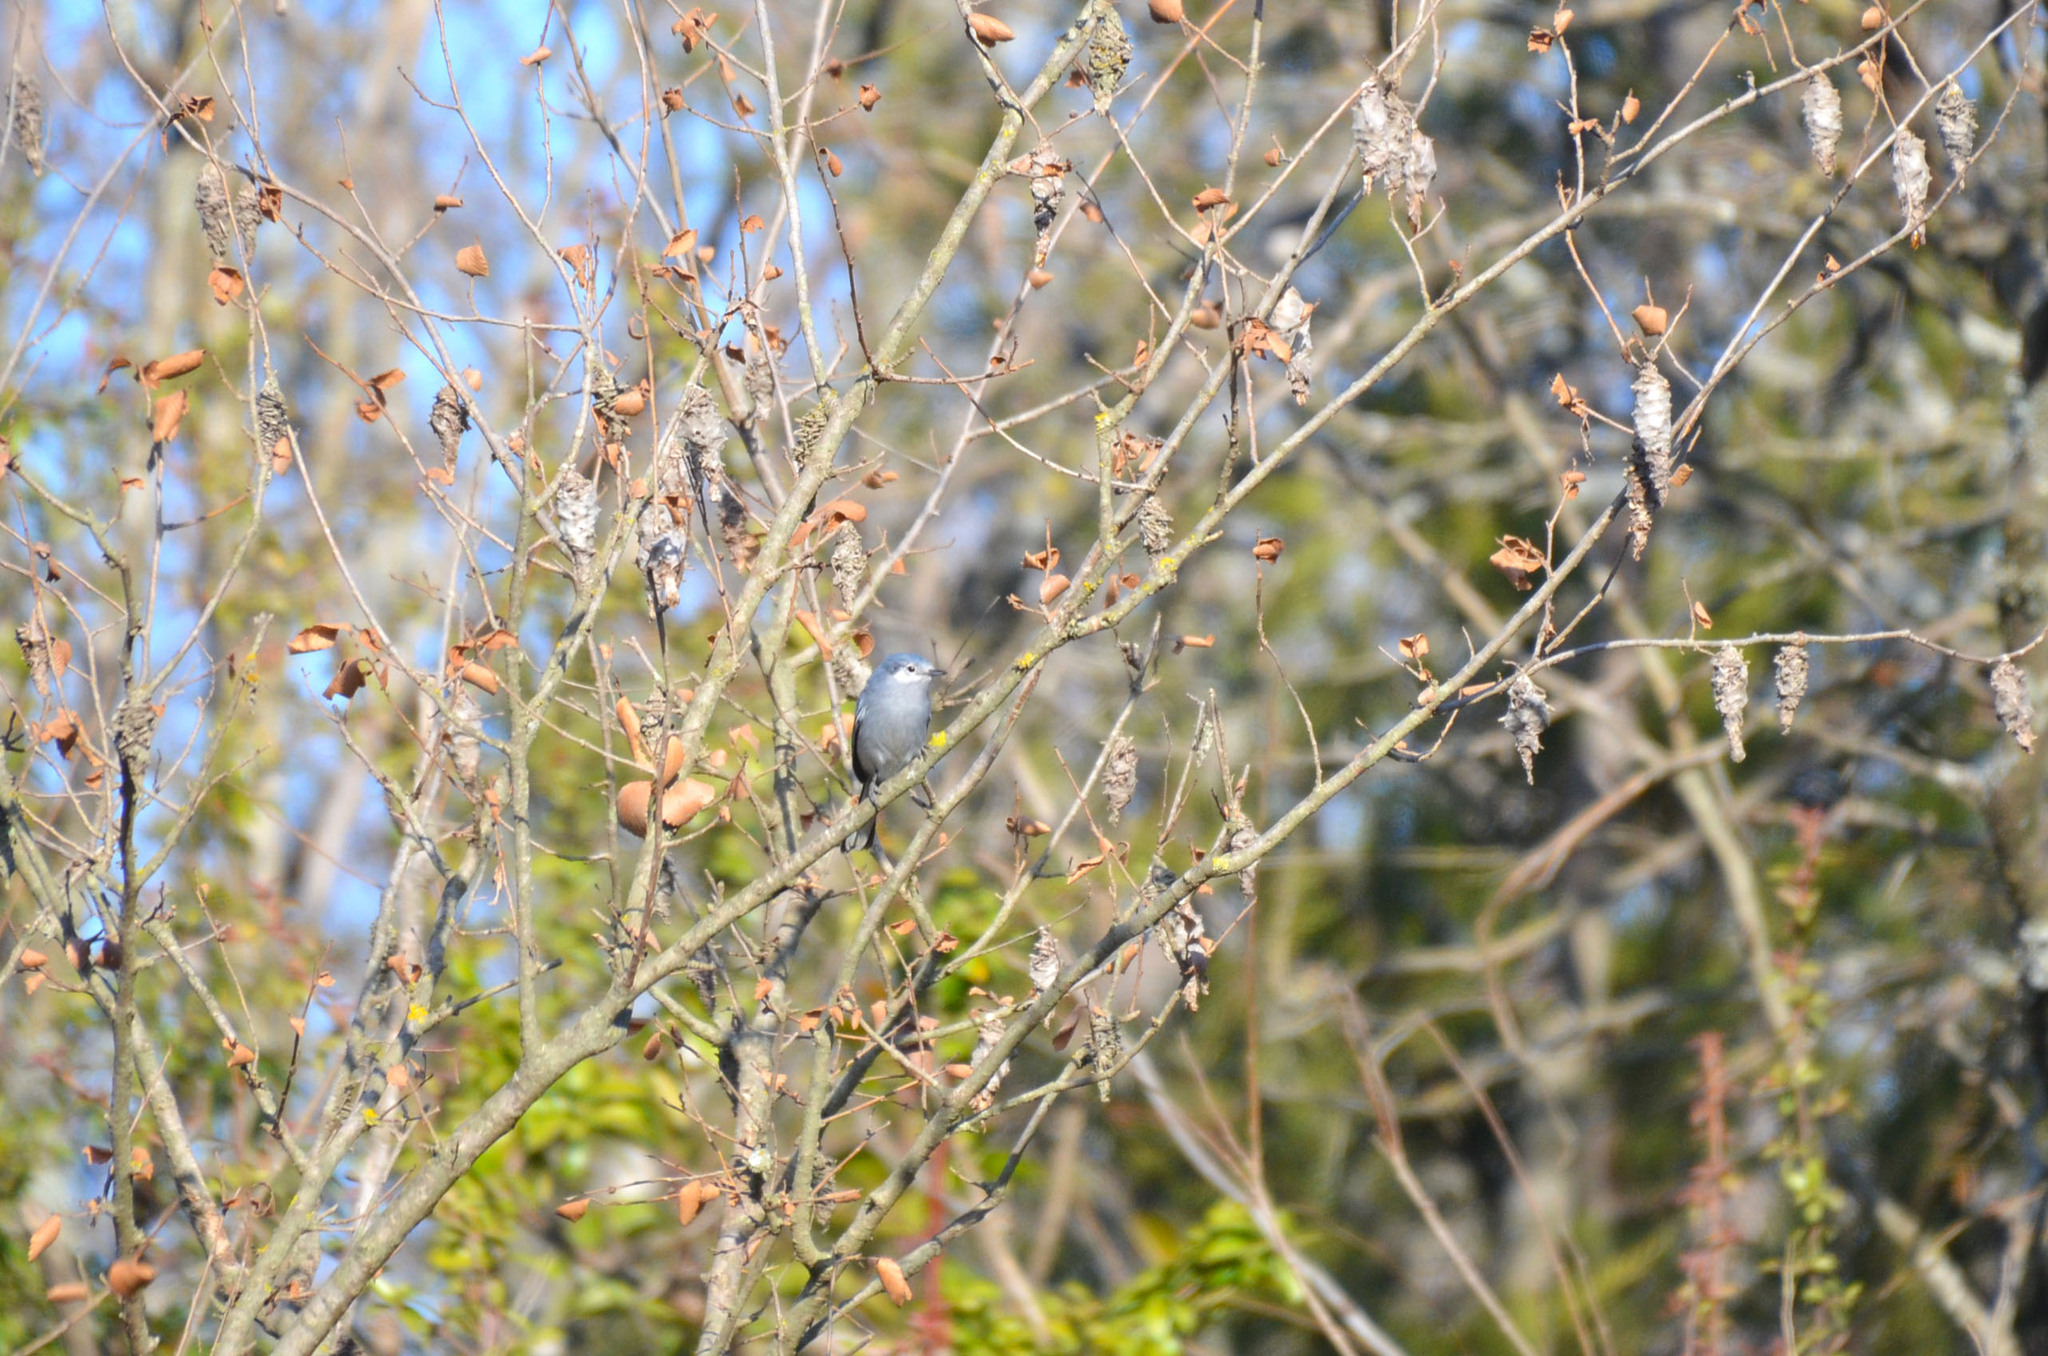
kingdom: Animalia
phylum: Chordata
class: Aves
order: Passeriformes
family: Polioptilidae
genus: Polioptila
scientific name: Polioptila dumicola
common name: Masked gnatcatcher
